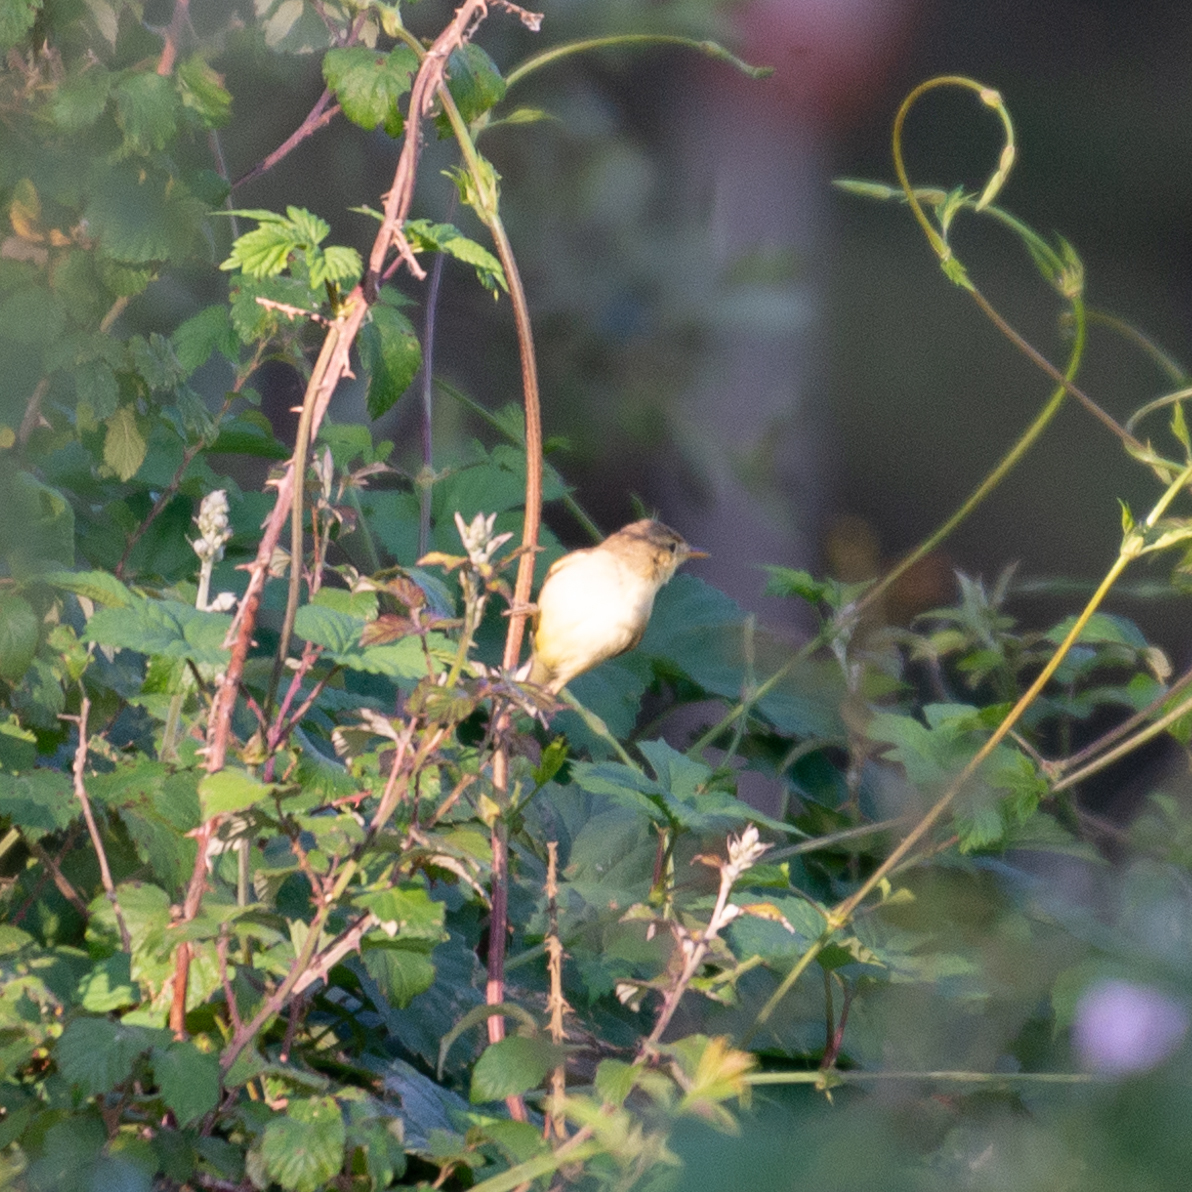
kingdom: Animalia
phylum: Chordata
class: Aves
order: Passeriformes
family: Acrocephalidae
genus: Hippolais
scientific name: Hippolais polyglotta
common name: Melodious warbler
